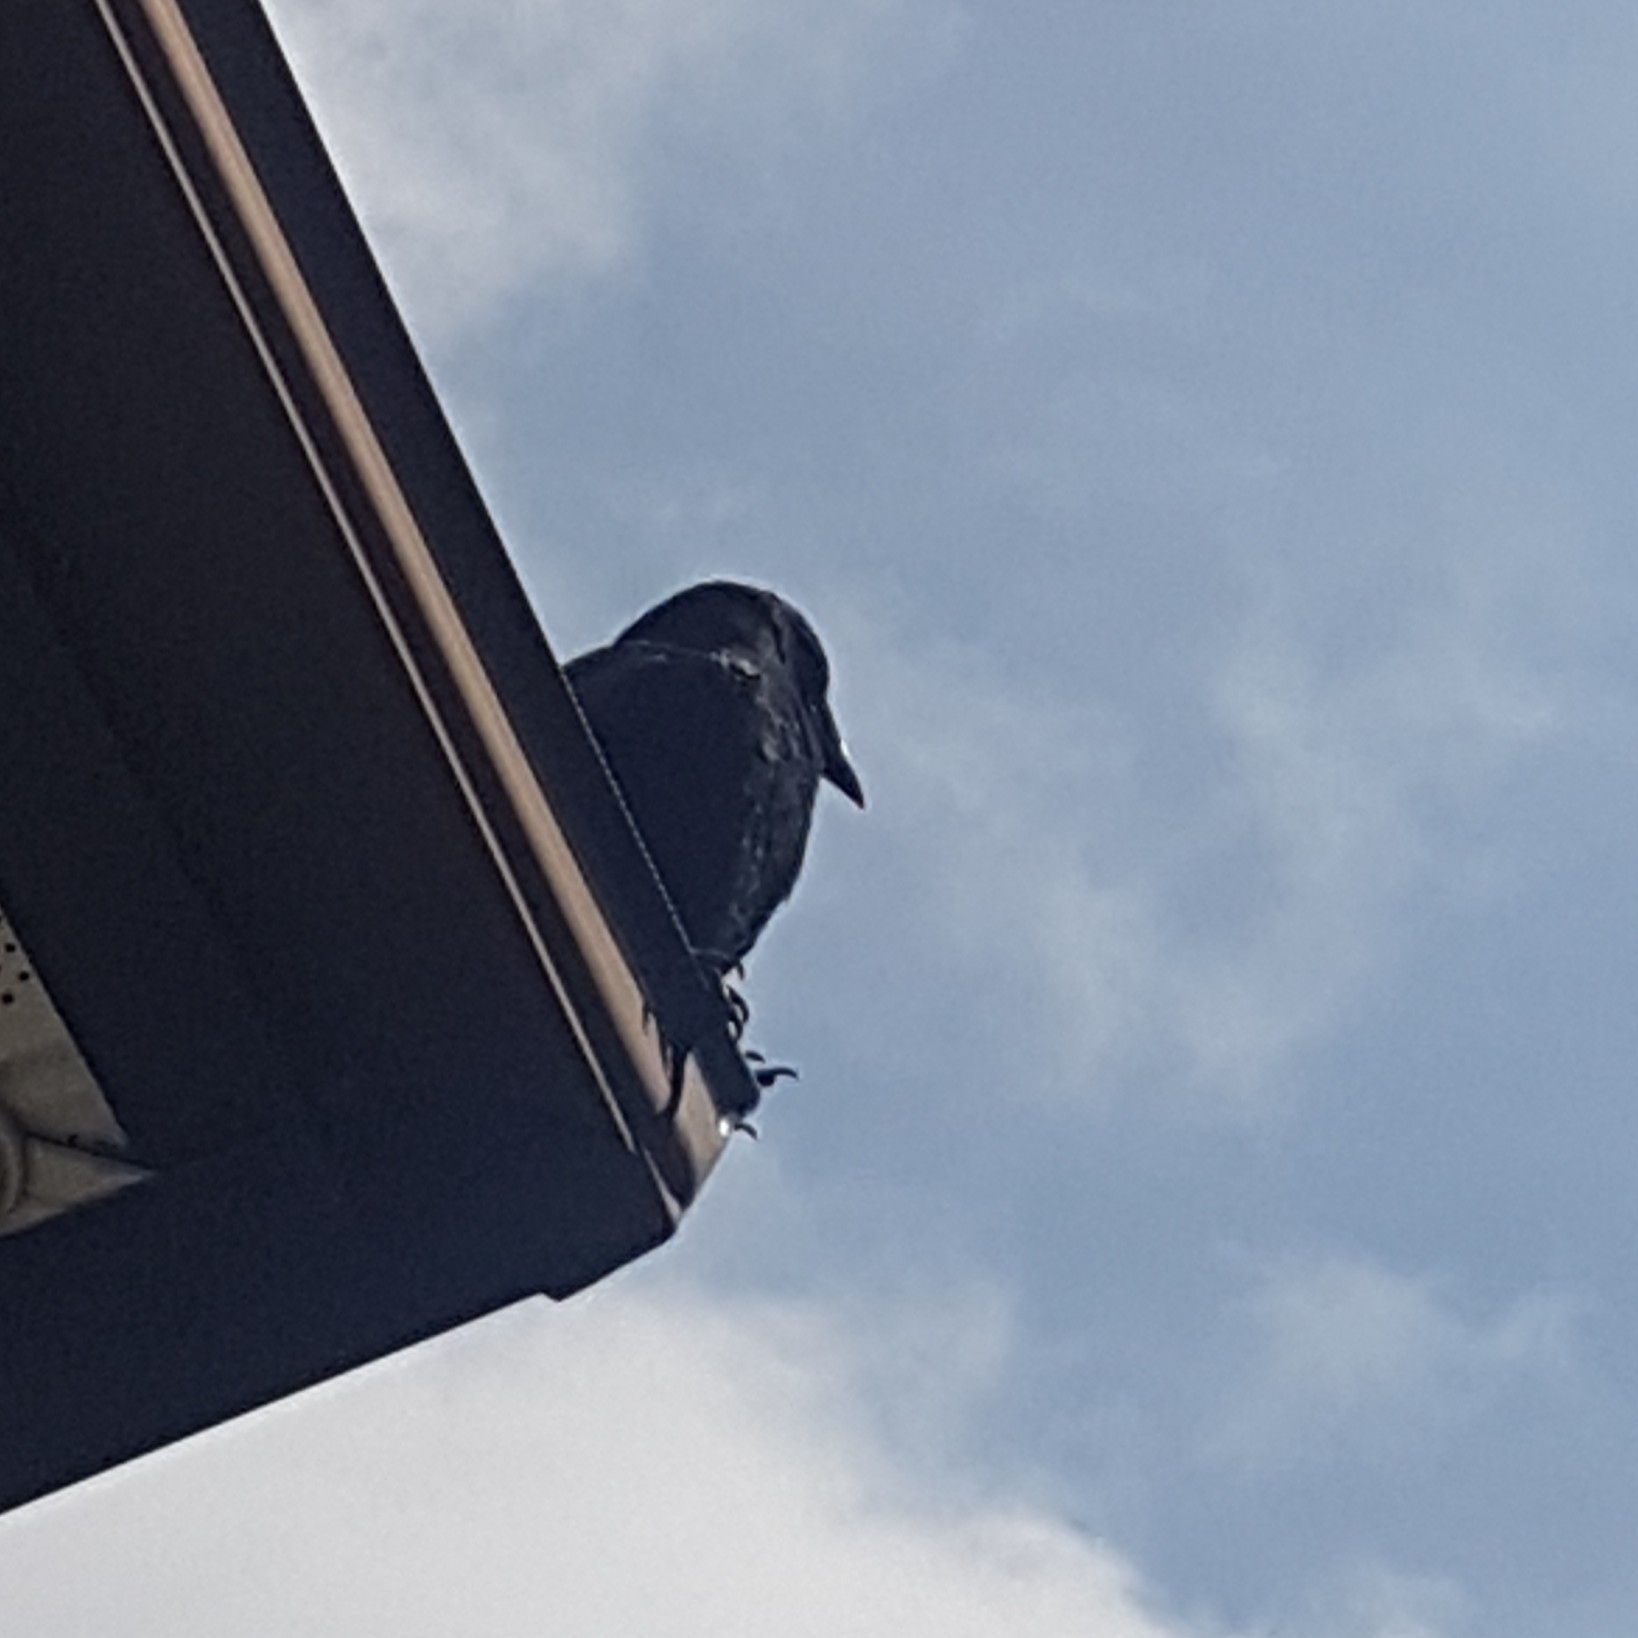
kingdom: Animalia
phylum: Chordata
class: Aves
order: Passeriformes
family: Corvidae
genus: Corvus
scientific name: Corvus brachyrhynchos
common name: American crow
